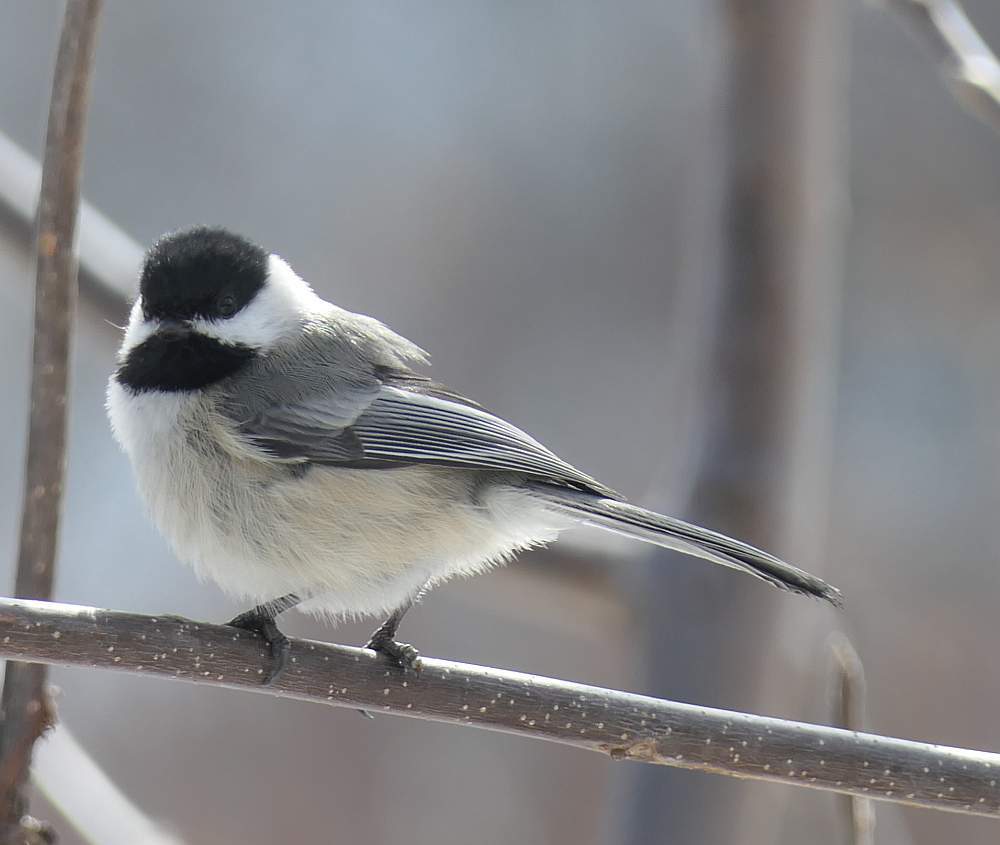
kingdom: Animalia
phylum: Chordata
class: Aves
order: Passeriformes
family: Paridae
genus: Poecile
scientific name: Poecile atricapillus
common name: Black-capped chickadee
